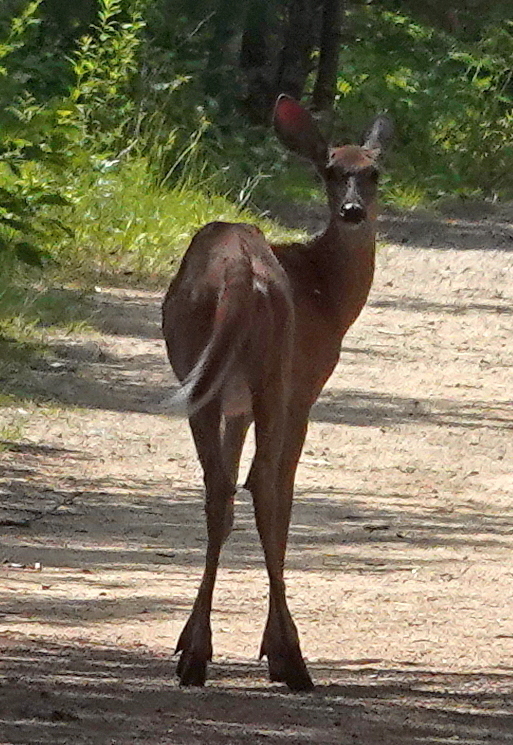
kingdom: Animalia
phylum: Chordata
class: Mammalia
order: Artiodactyla
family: Cervidae
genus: Odocoileus
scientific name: Odocoileus virginianus
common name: White-tailed deer
